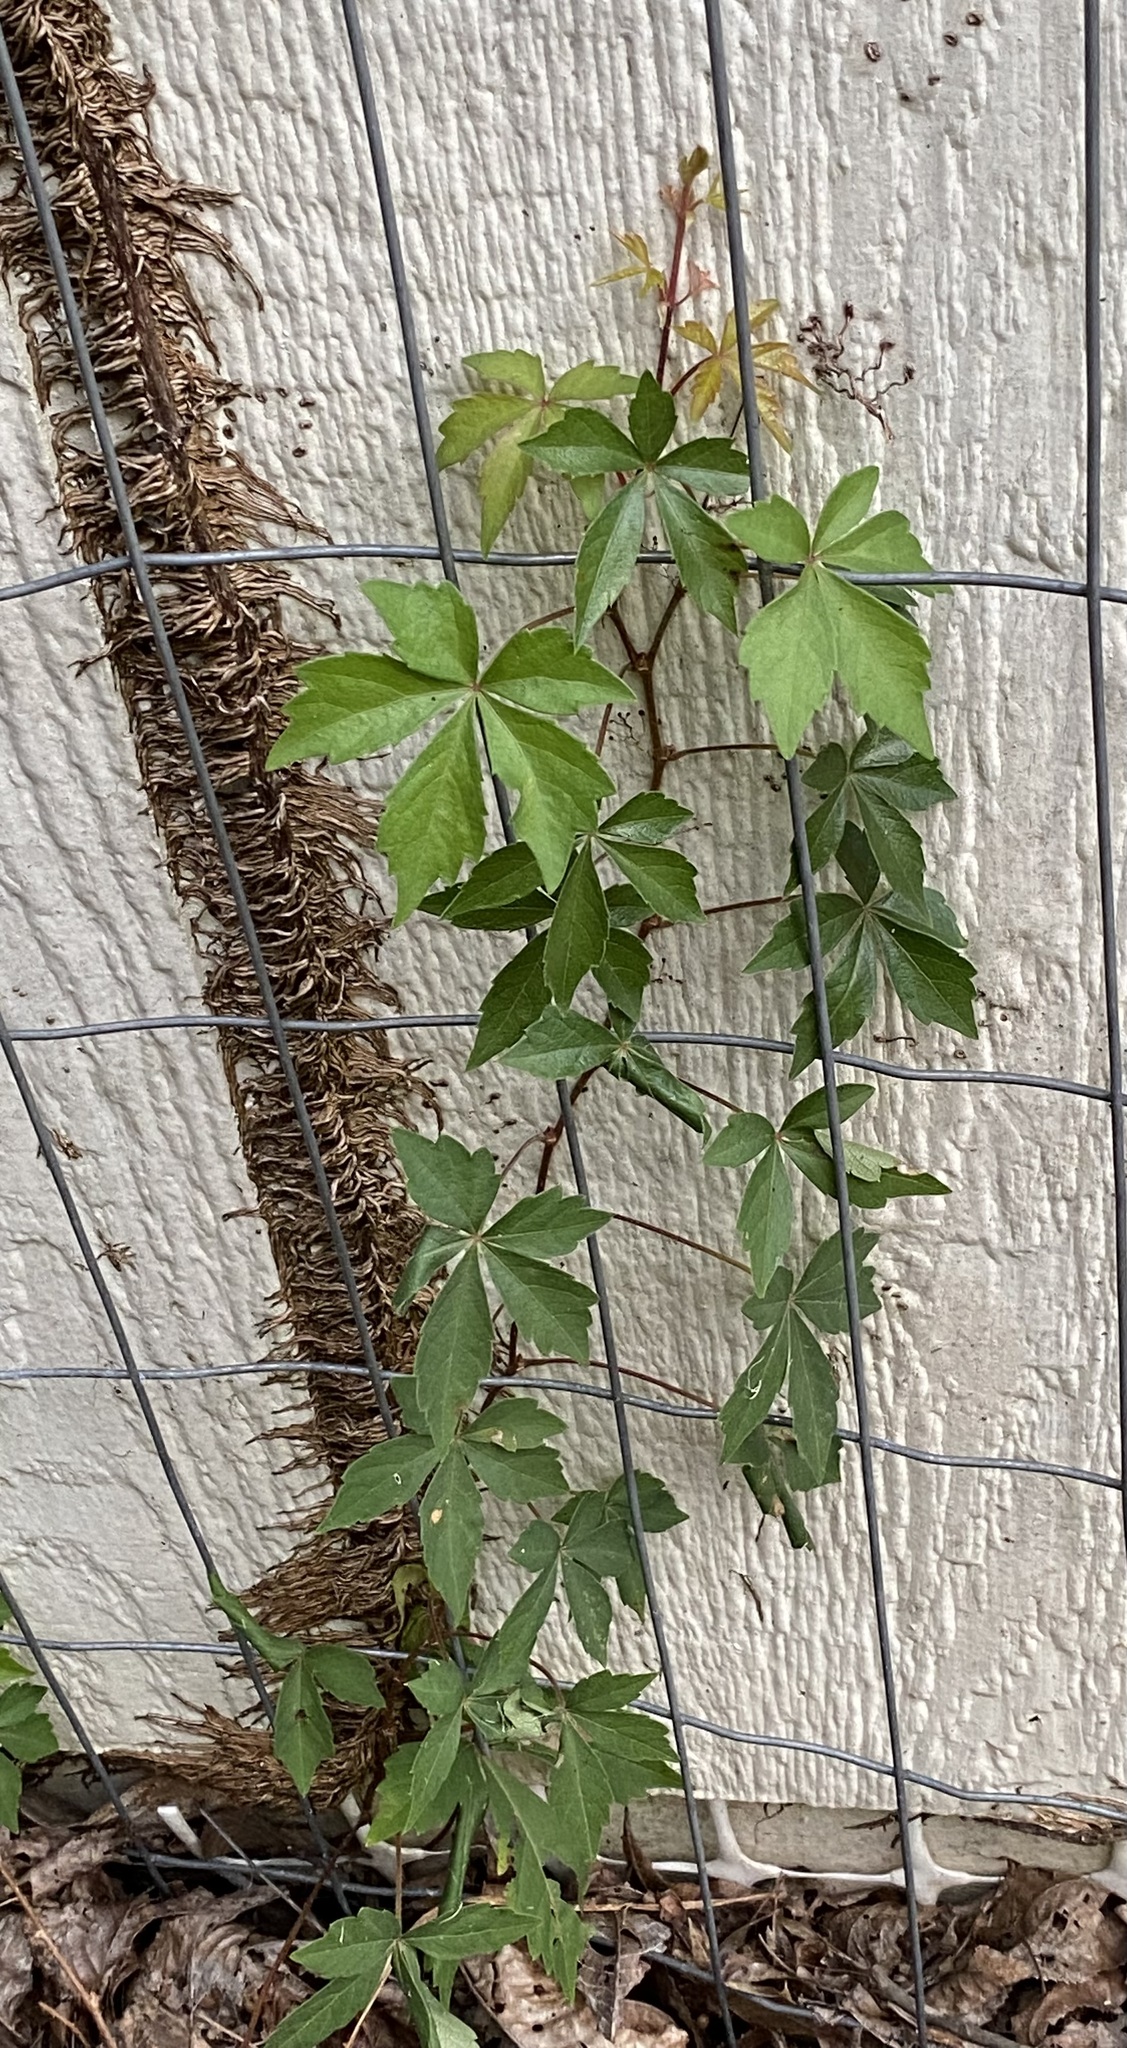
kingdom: Plantae
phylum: Tracheophyta
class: Magnoliopsida
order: Vitales
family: Vitaceae
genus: Parthenocissus
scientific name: Parthenocissus quinquefolia
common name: Virginia-creeper
